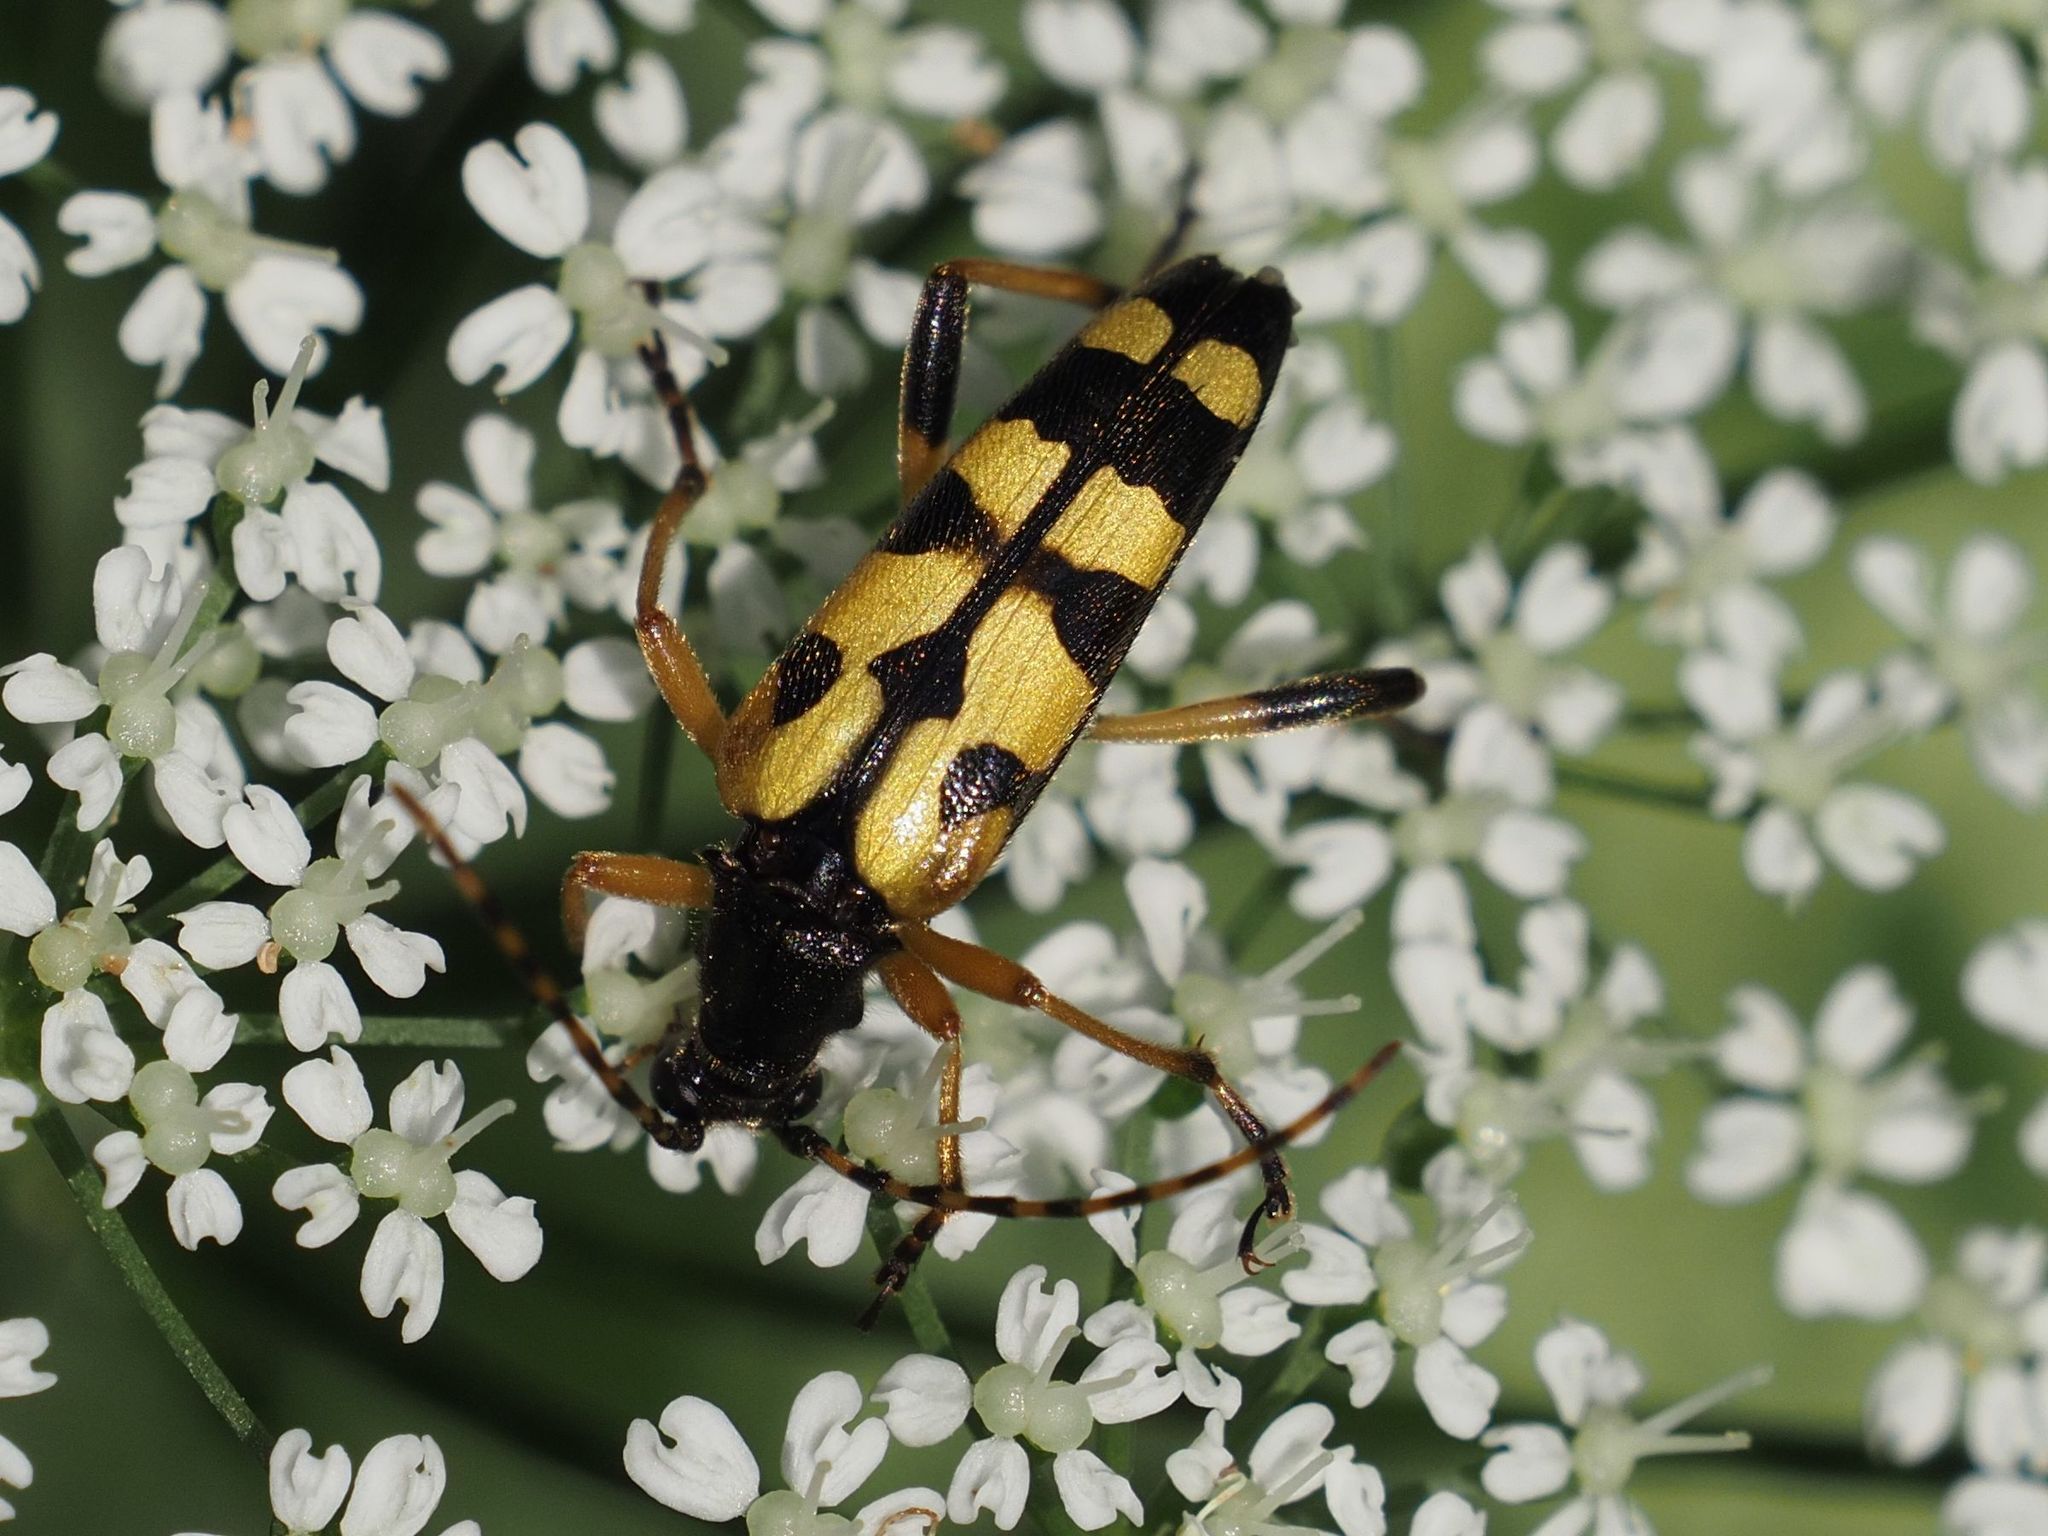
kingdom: Animalia
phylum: Arthropoda
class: Insecta
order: Coleoptera
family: Cerambycidae
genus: Rutpela
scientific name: Rutpela maculata
